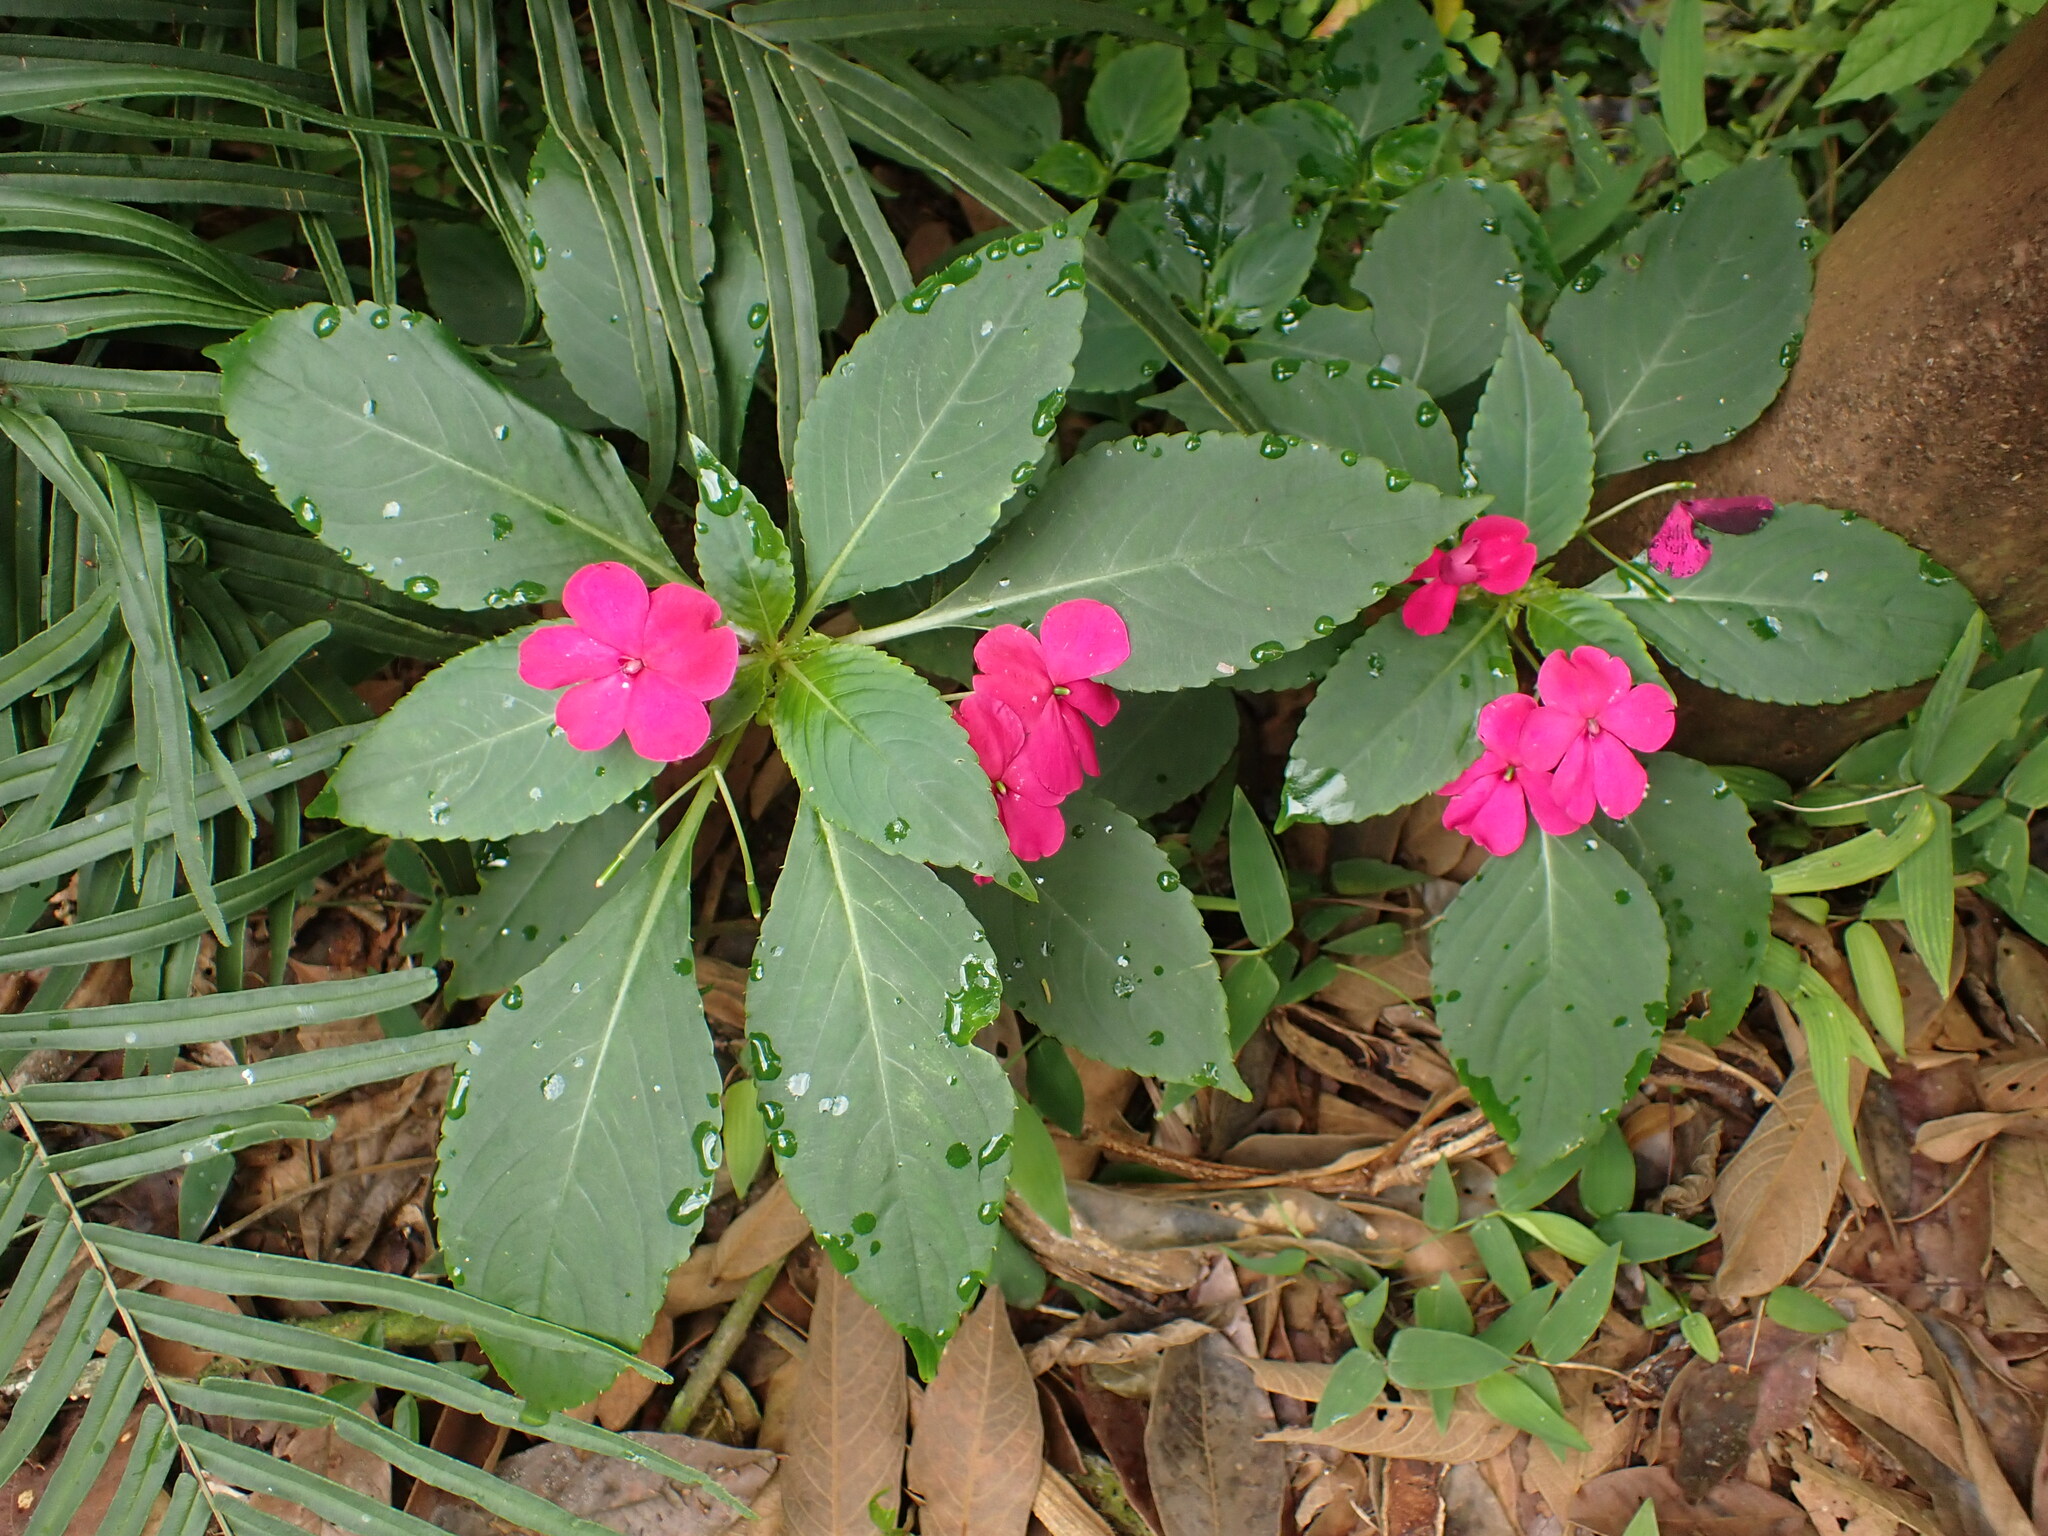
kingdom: Plantae
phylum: Tracheophyta
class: Magnoliopsida
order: Ericales
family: Balsaminaceae
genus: Impatiens
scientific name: Impatiens walleriana
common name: Buzzy lizzy
